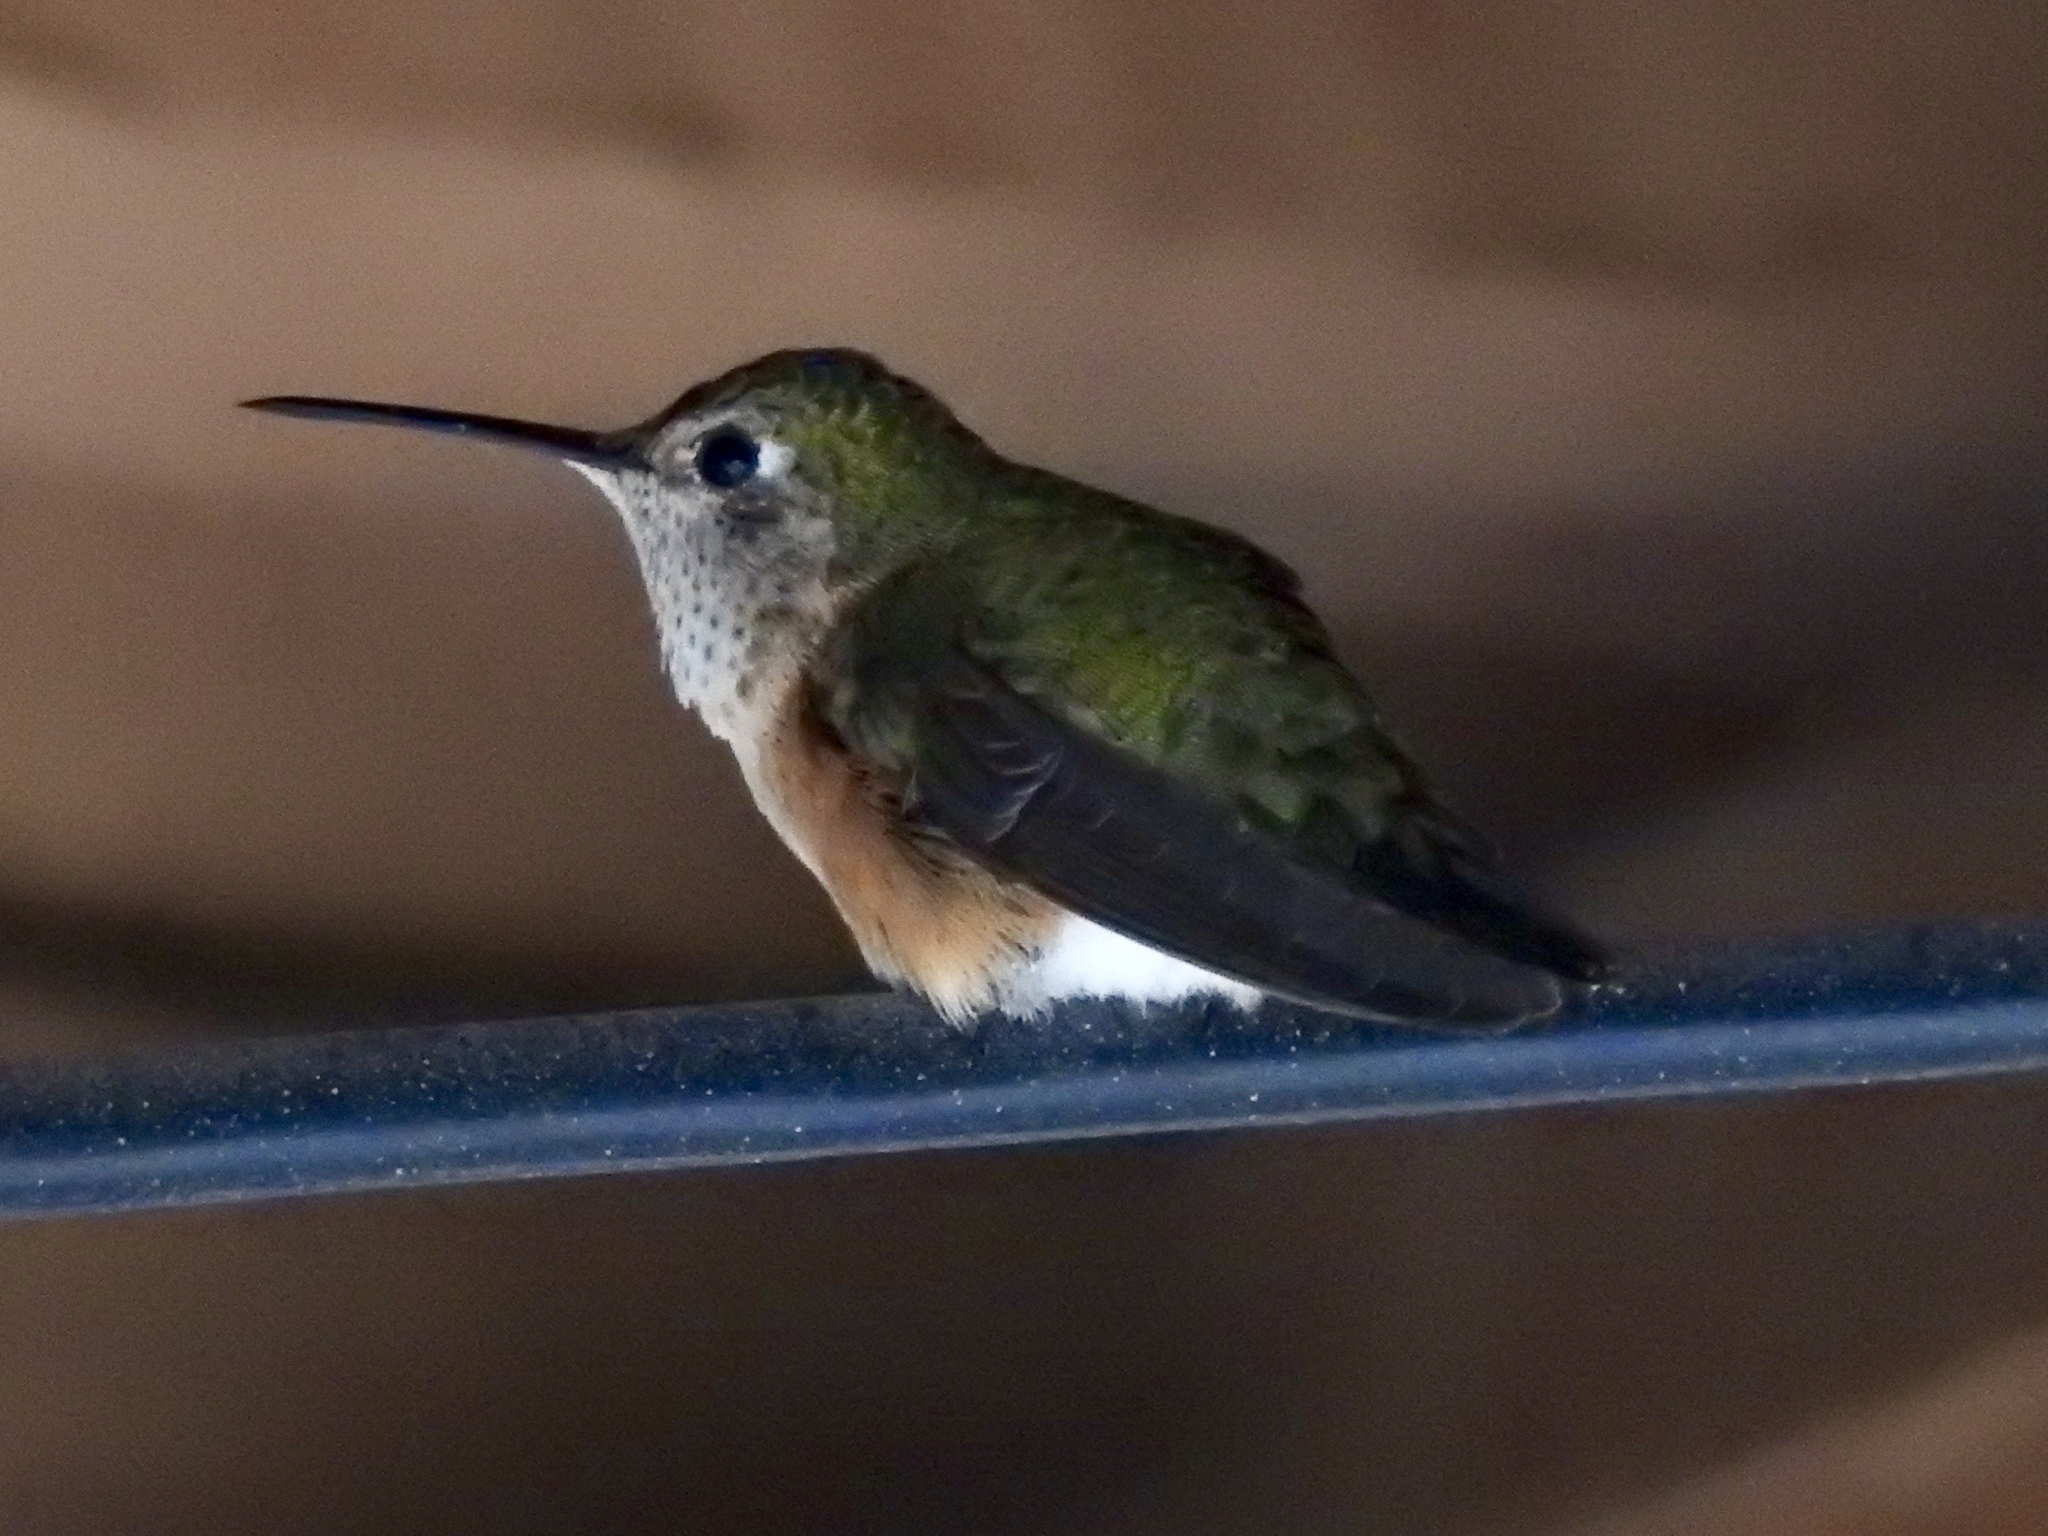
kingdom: Animalia
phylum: Chordata
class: Aves
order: Apodiformes
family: Trochilidae
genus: Selasphorus
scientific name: Selasphorus platycercus
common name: Broad-tailed hummingbird
